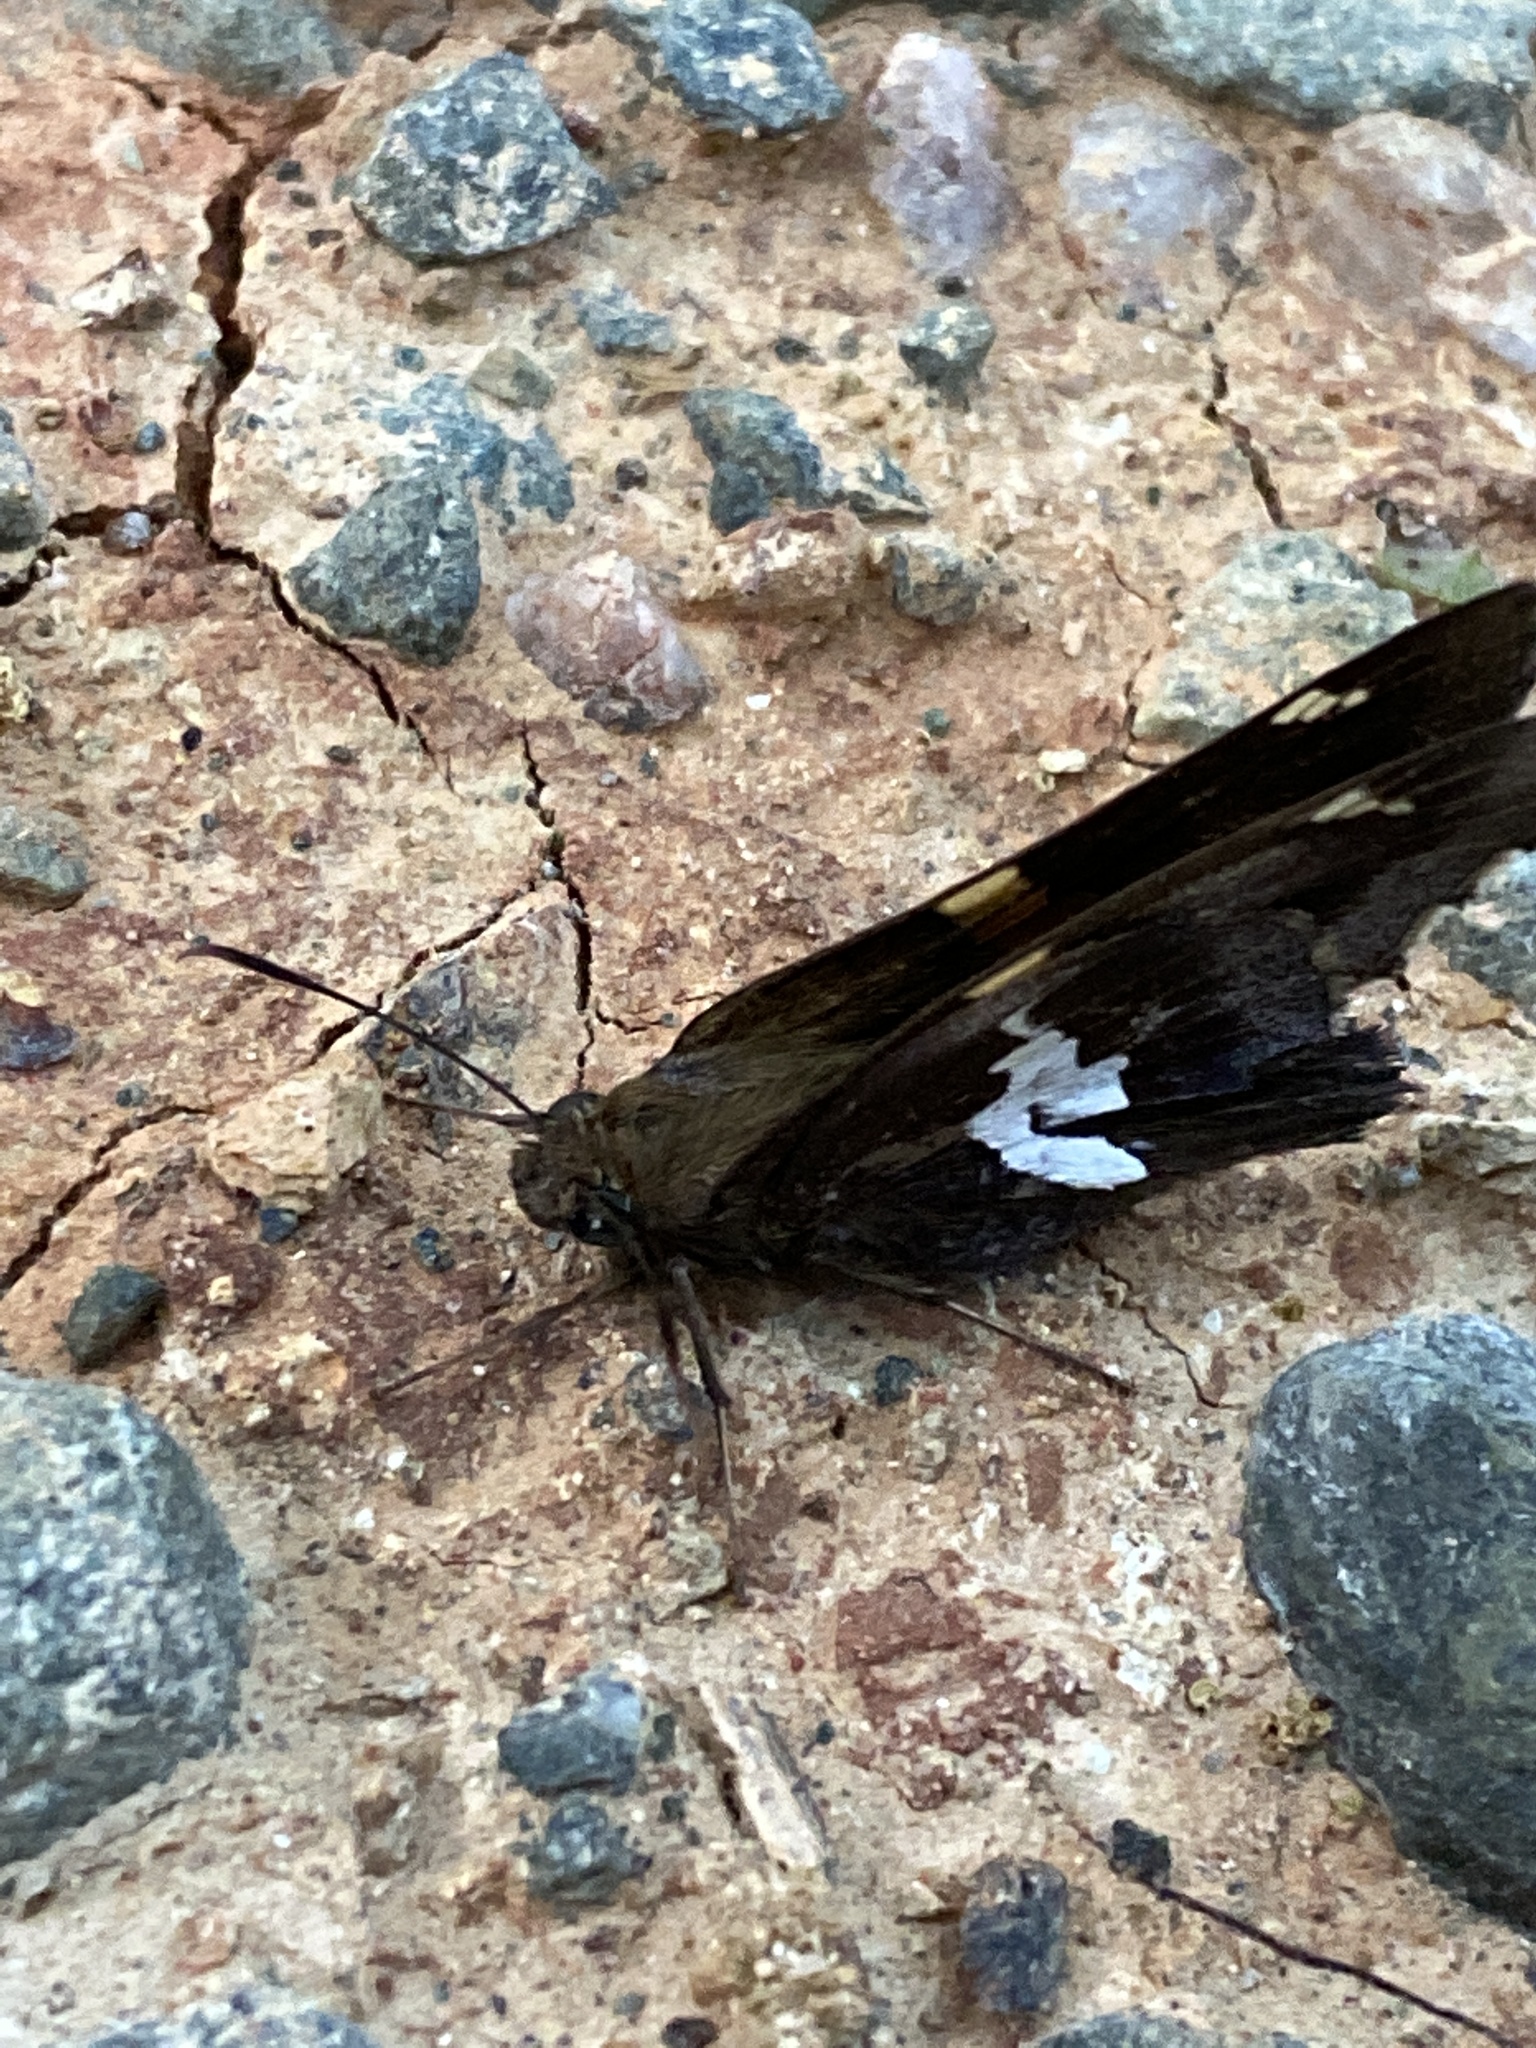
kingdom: Animalia
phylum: Arthropoda
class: Insecta
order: Lepidoptera
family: Hesperiidae
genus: Epargyreus
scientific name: Epargyreus clarus
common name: Silver-spotted skipper
